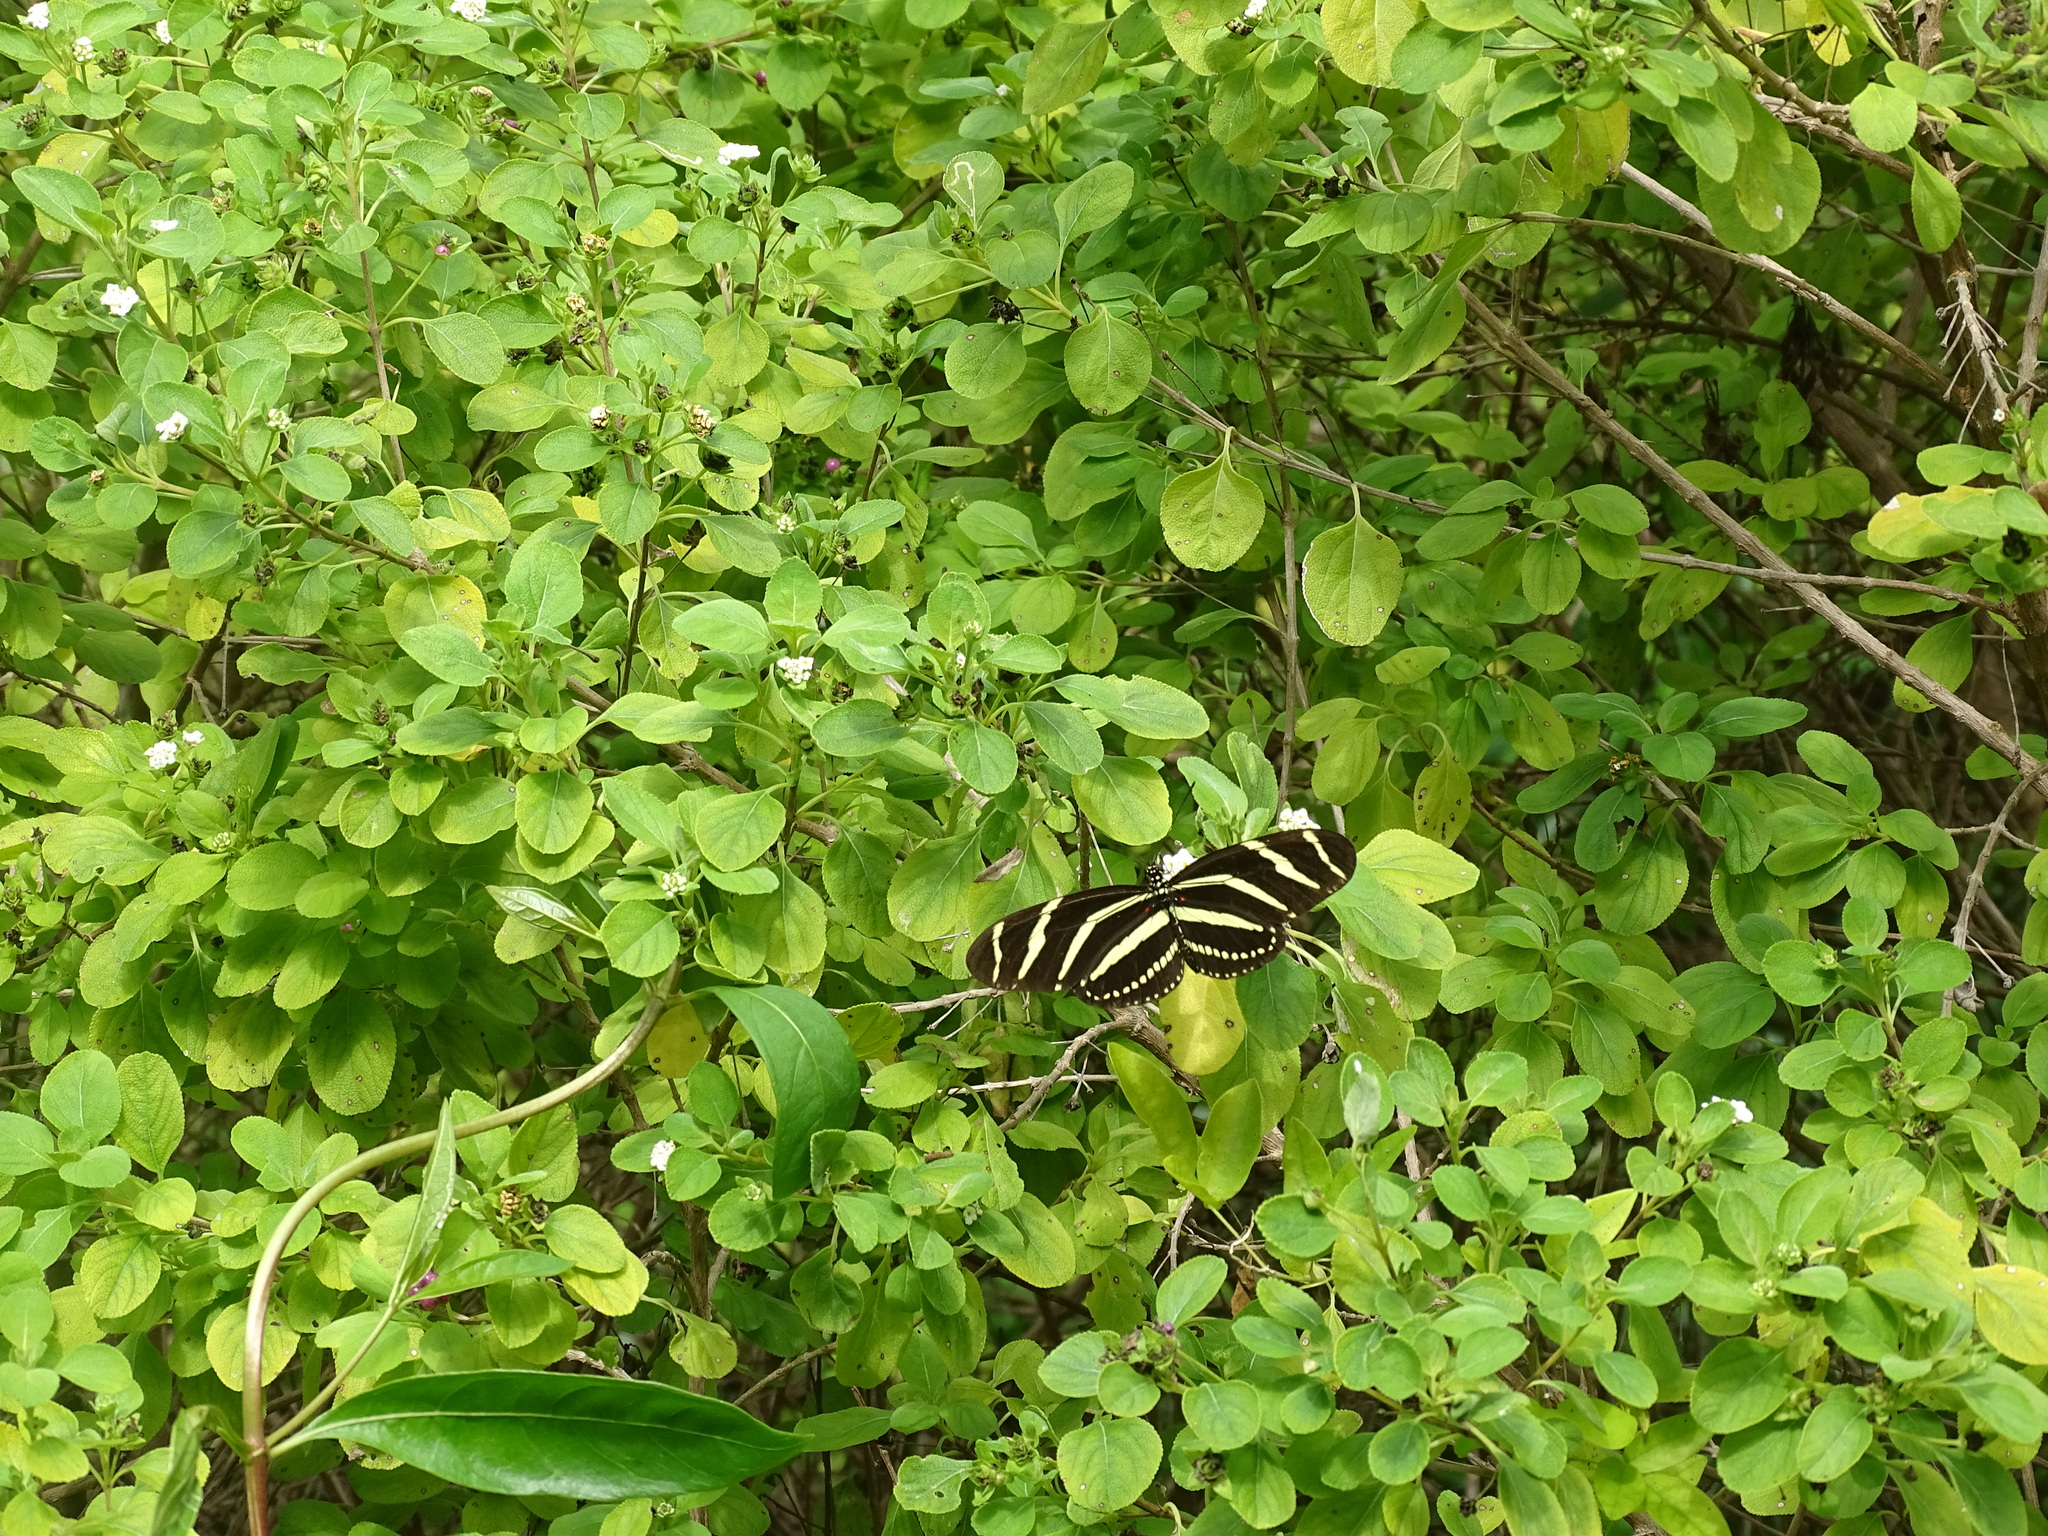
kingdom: Animalia
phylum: Arthropoda
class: Insecta
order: Lepidoptera
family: Nymphalidae
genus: Heliconius
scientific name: Heliconius charithonia
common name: Zebra long wing
